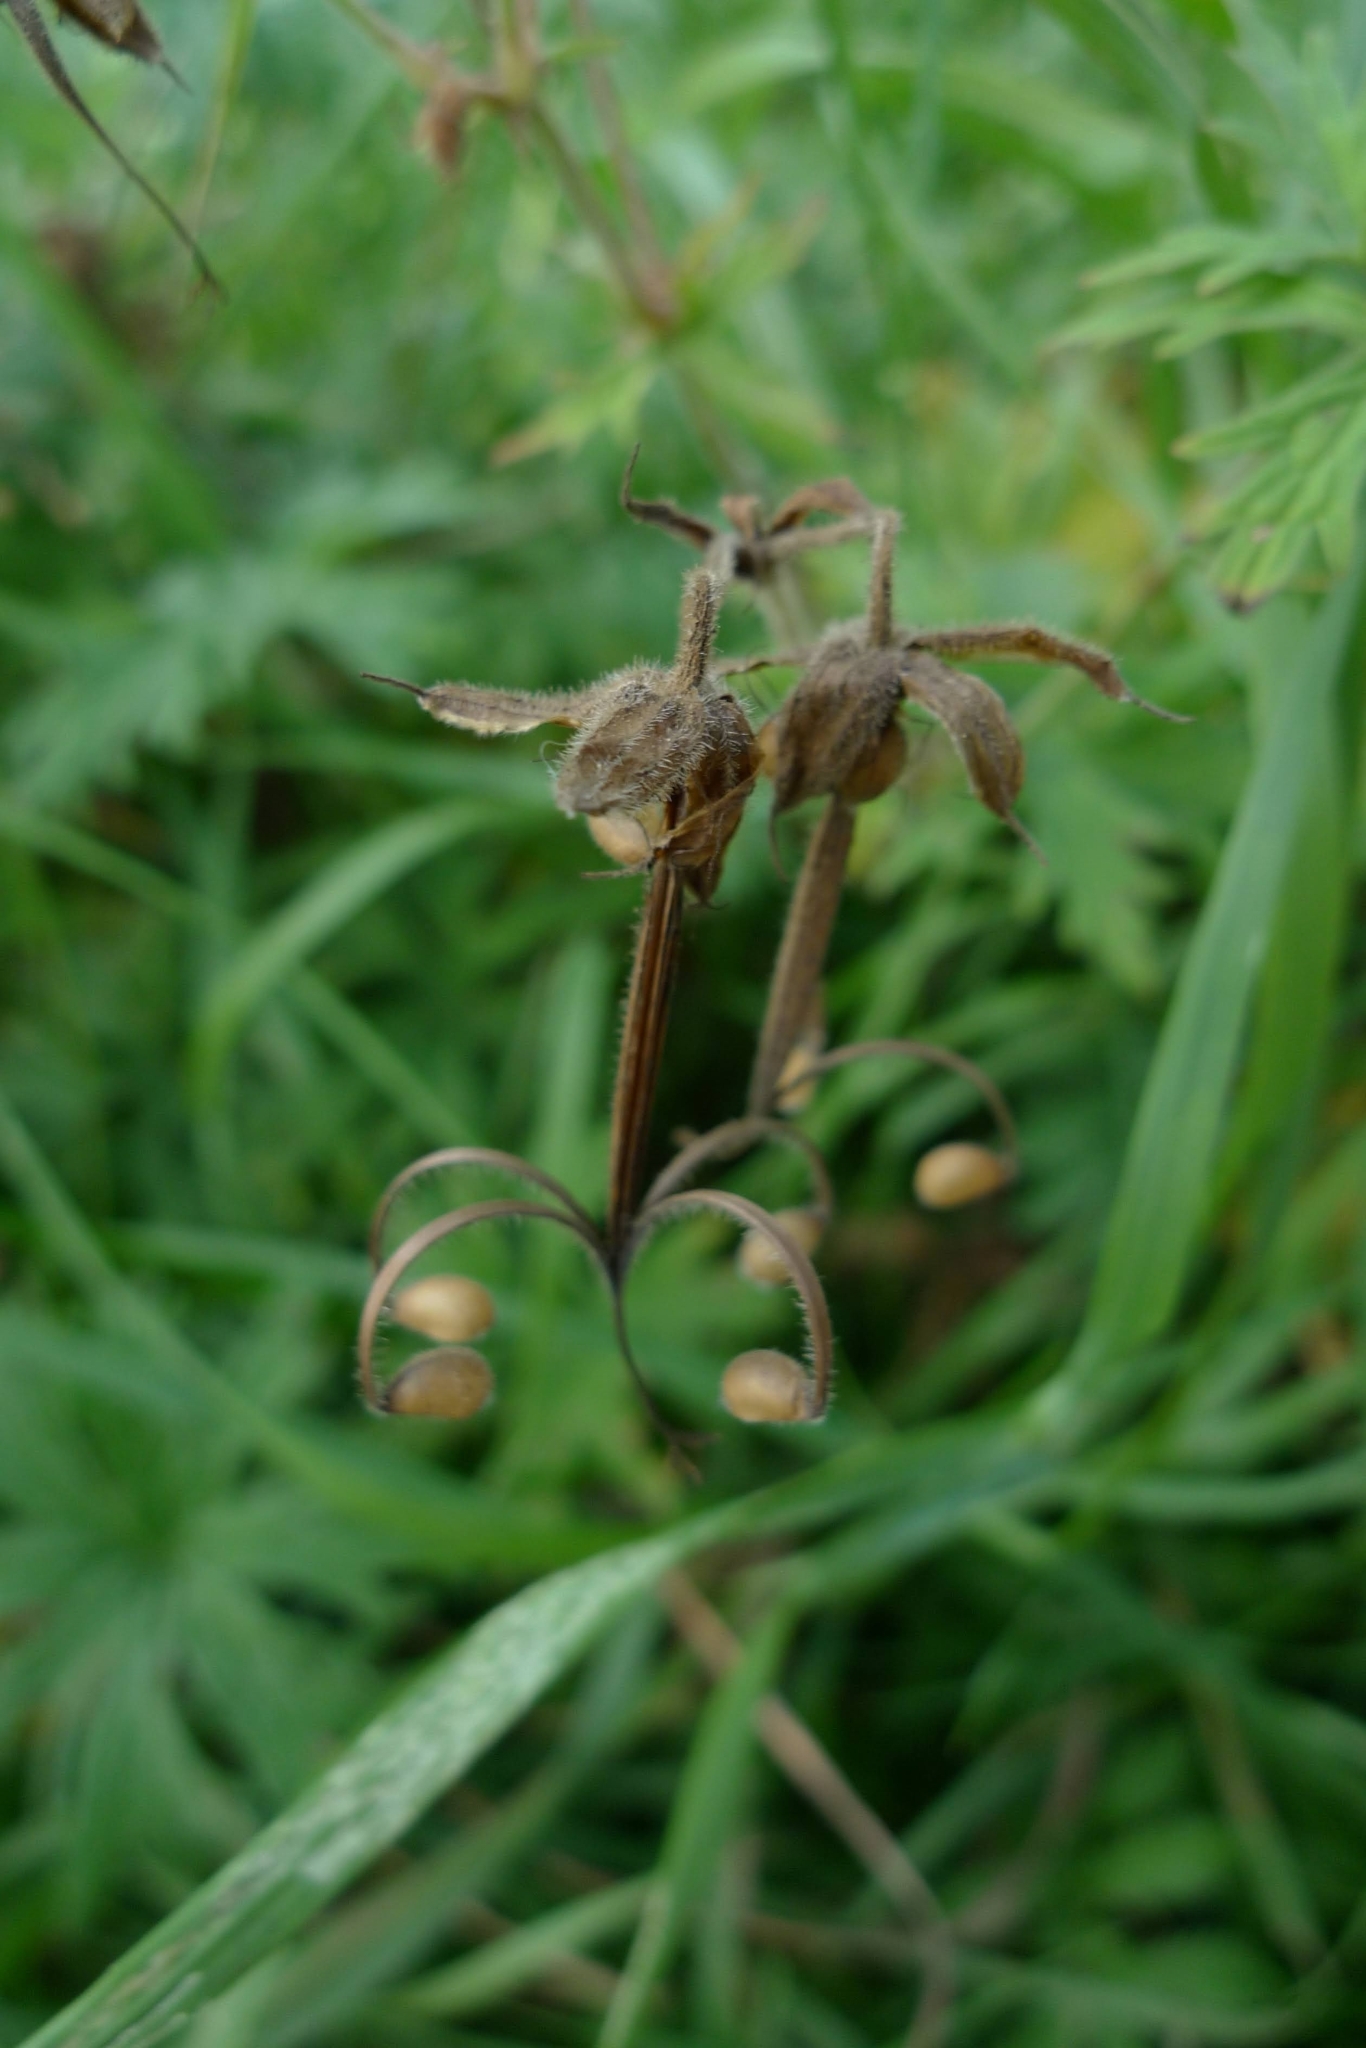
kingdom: Plantae
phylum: Tracheophyta
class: Magnoliopsida
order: Geraniales
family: Geraniaceae
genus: Geranium
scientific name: Geranium pratense
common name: Meadow crane's-bill
